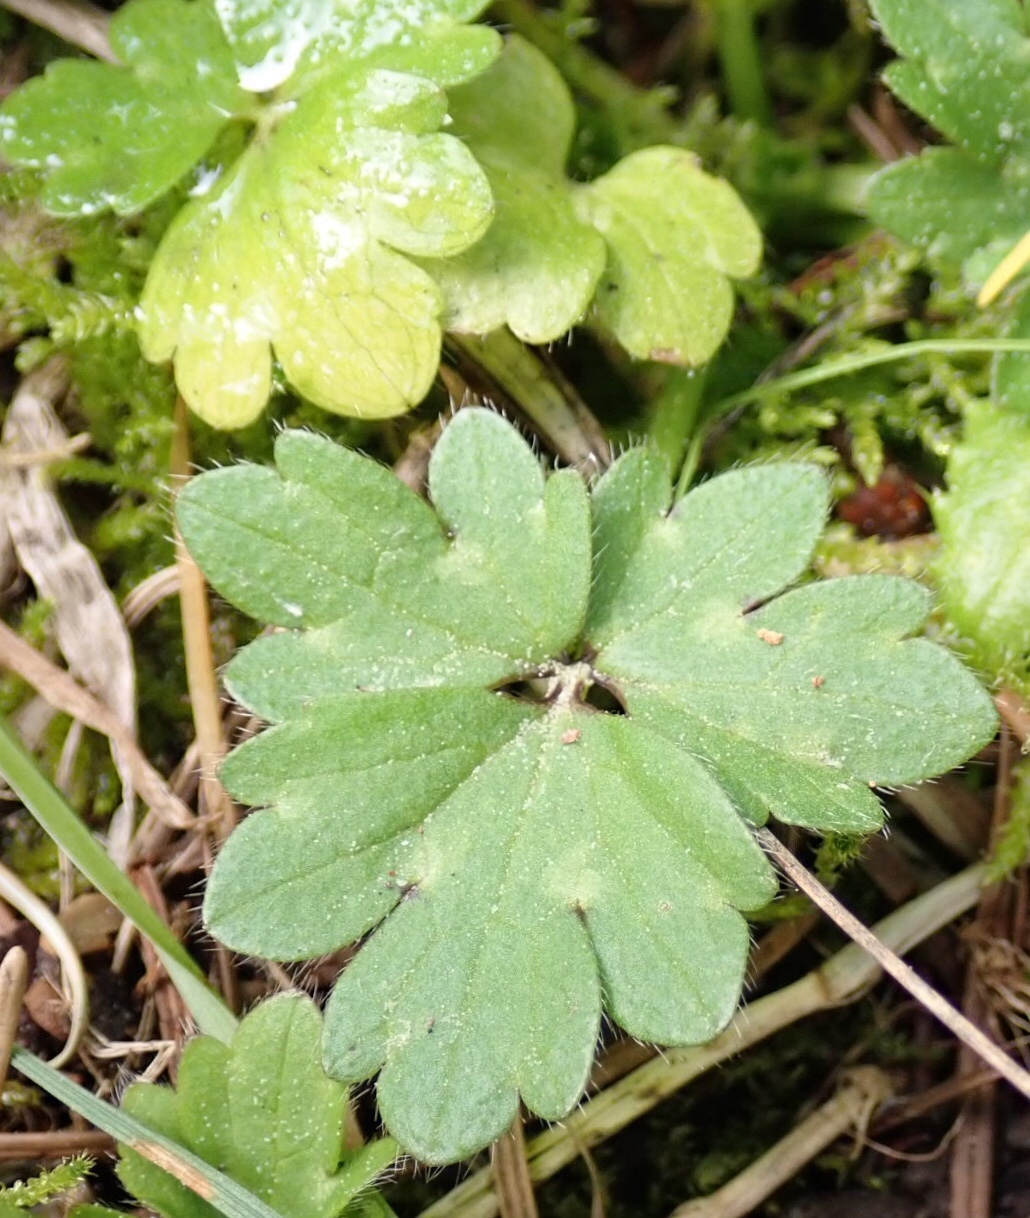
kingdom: Plantae
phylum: Tracheophyta
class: Magnoliopsida
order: Ranunculales
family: Ranunculaceae
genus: Ranunculus
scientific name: Ranunculus repens
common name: Creeping buttercup
